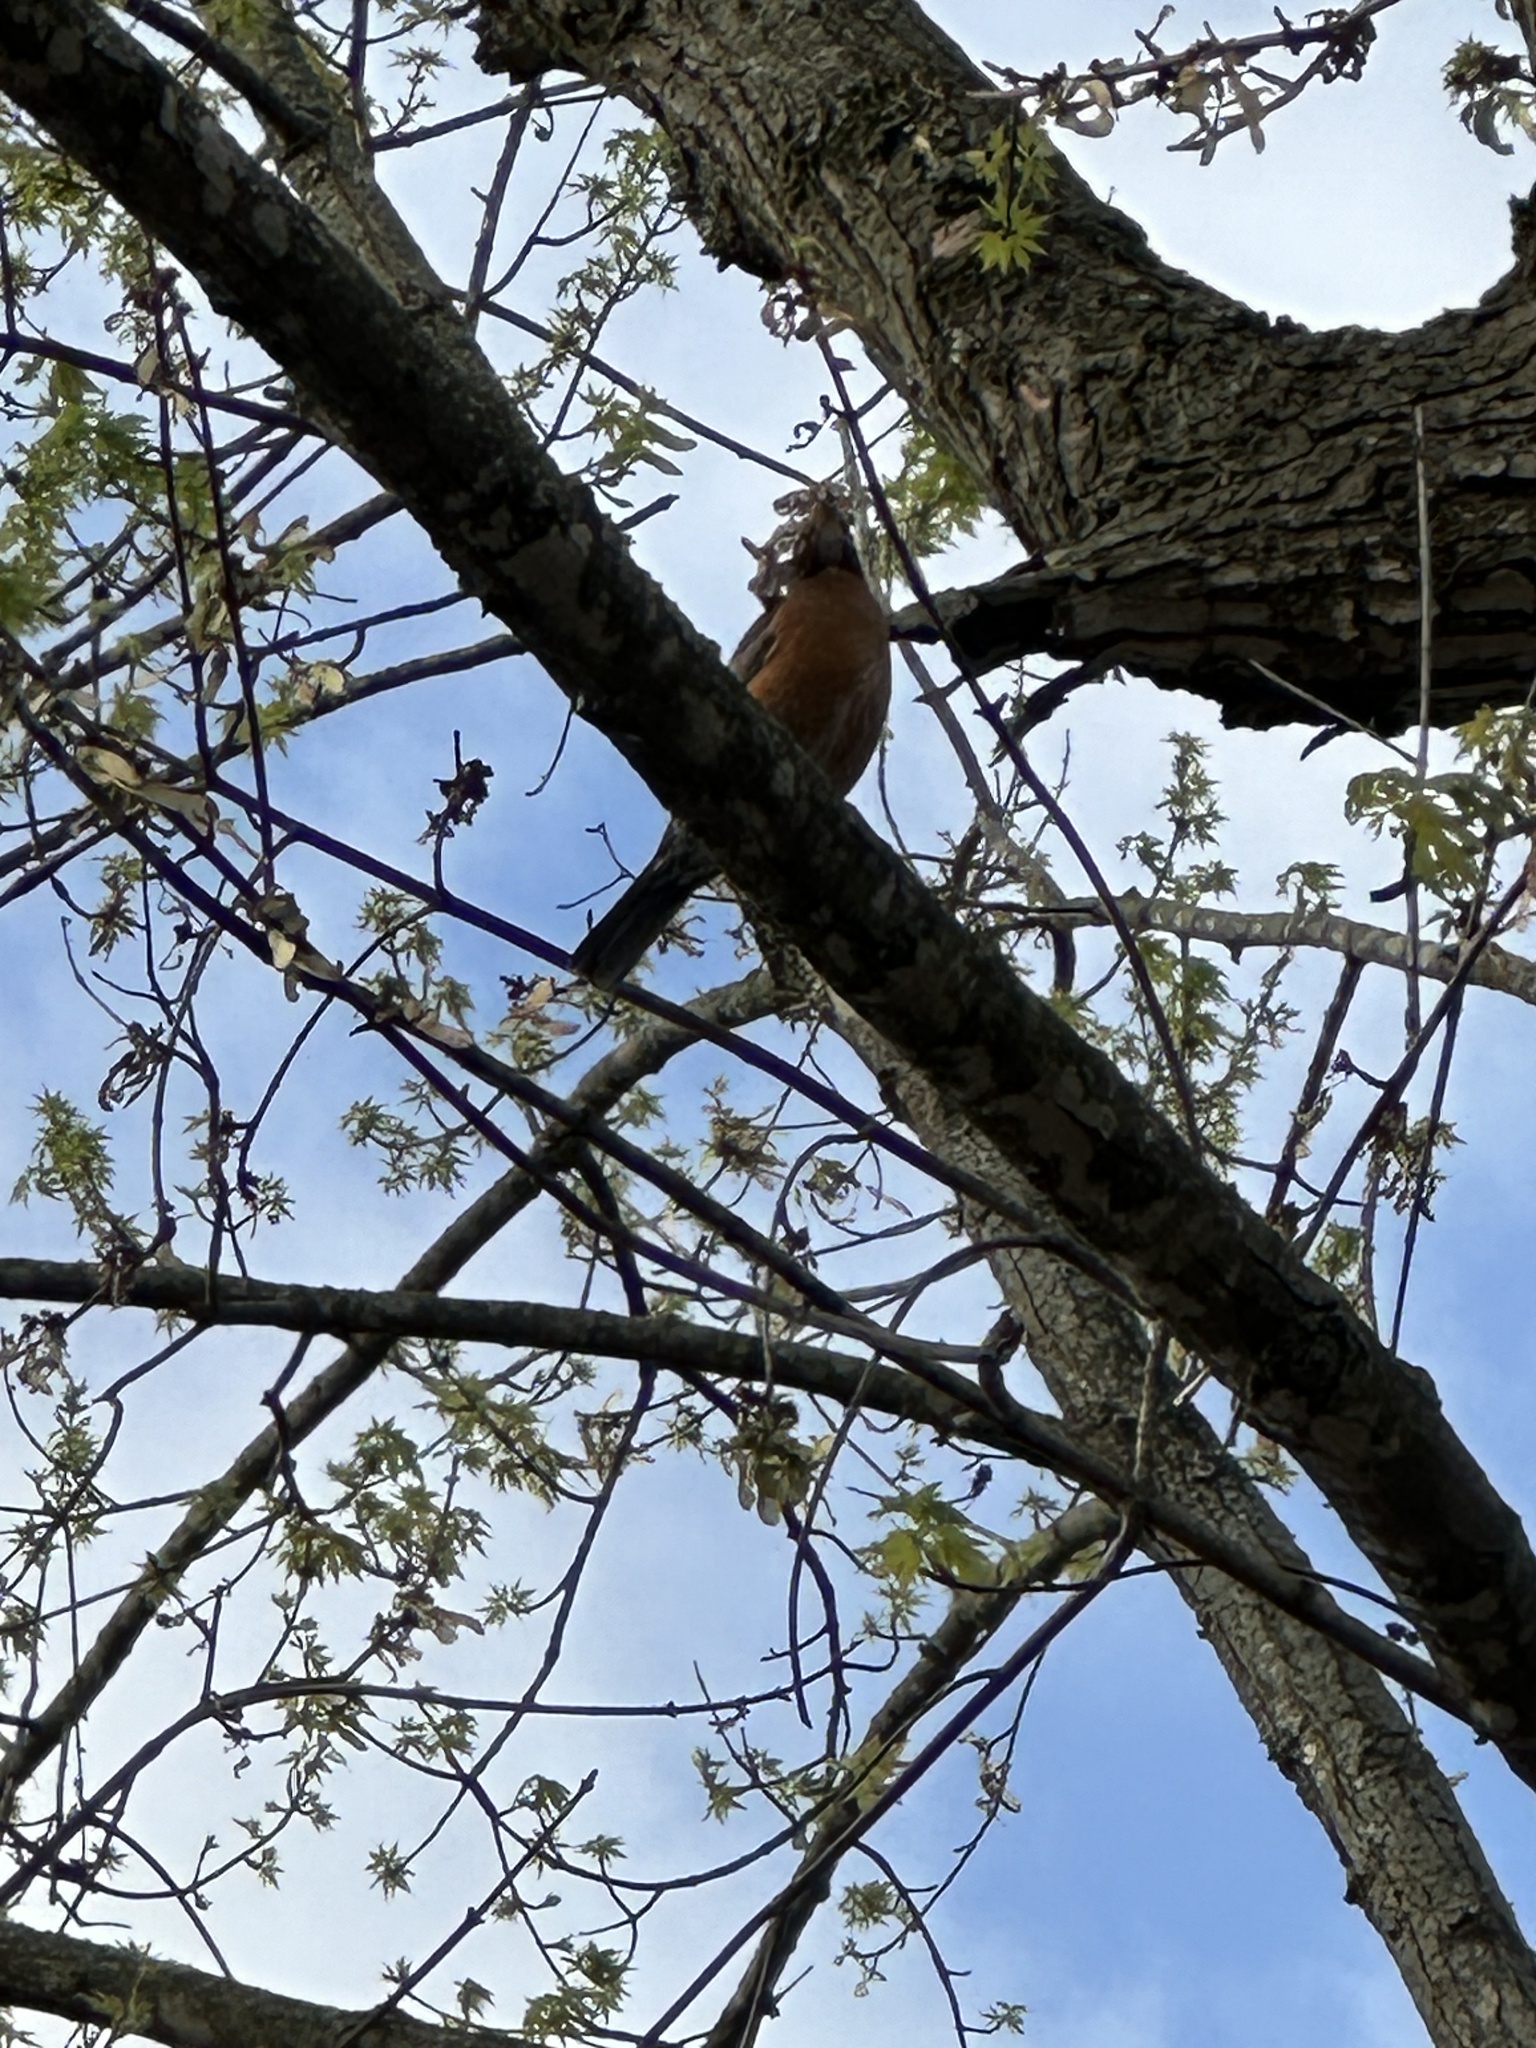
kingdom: Animalia
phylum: Chordata
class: Aves
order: Passeriformes
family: Turdidae
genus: Turdus
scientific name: Turdus migratorius
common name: American robin
